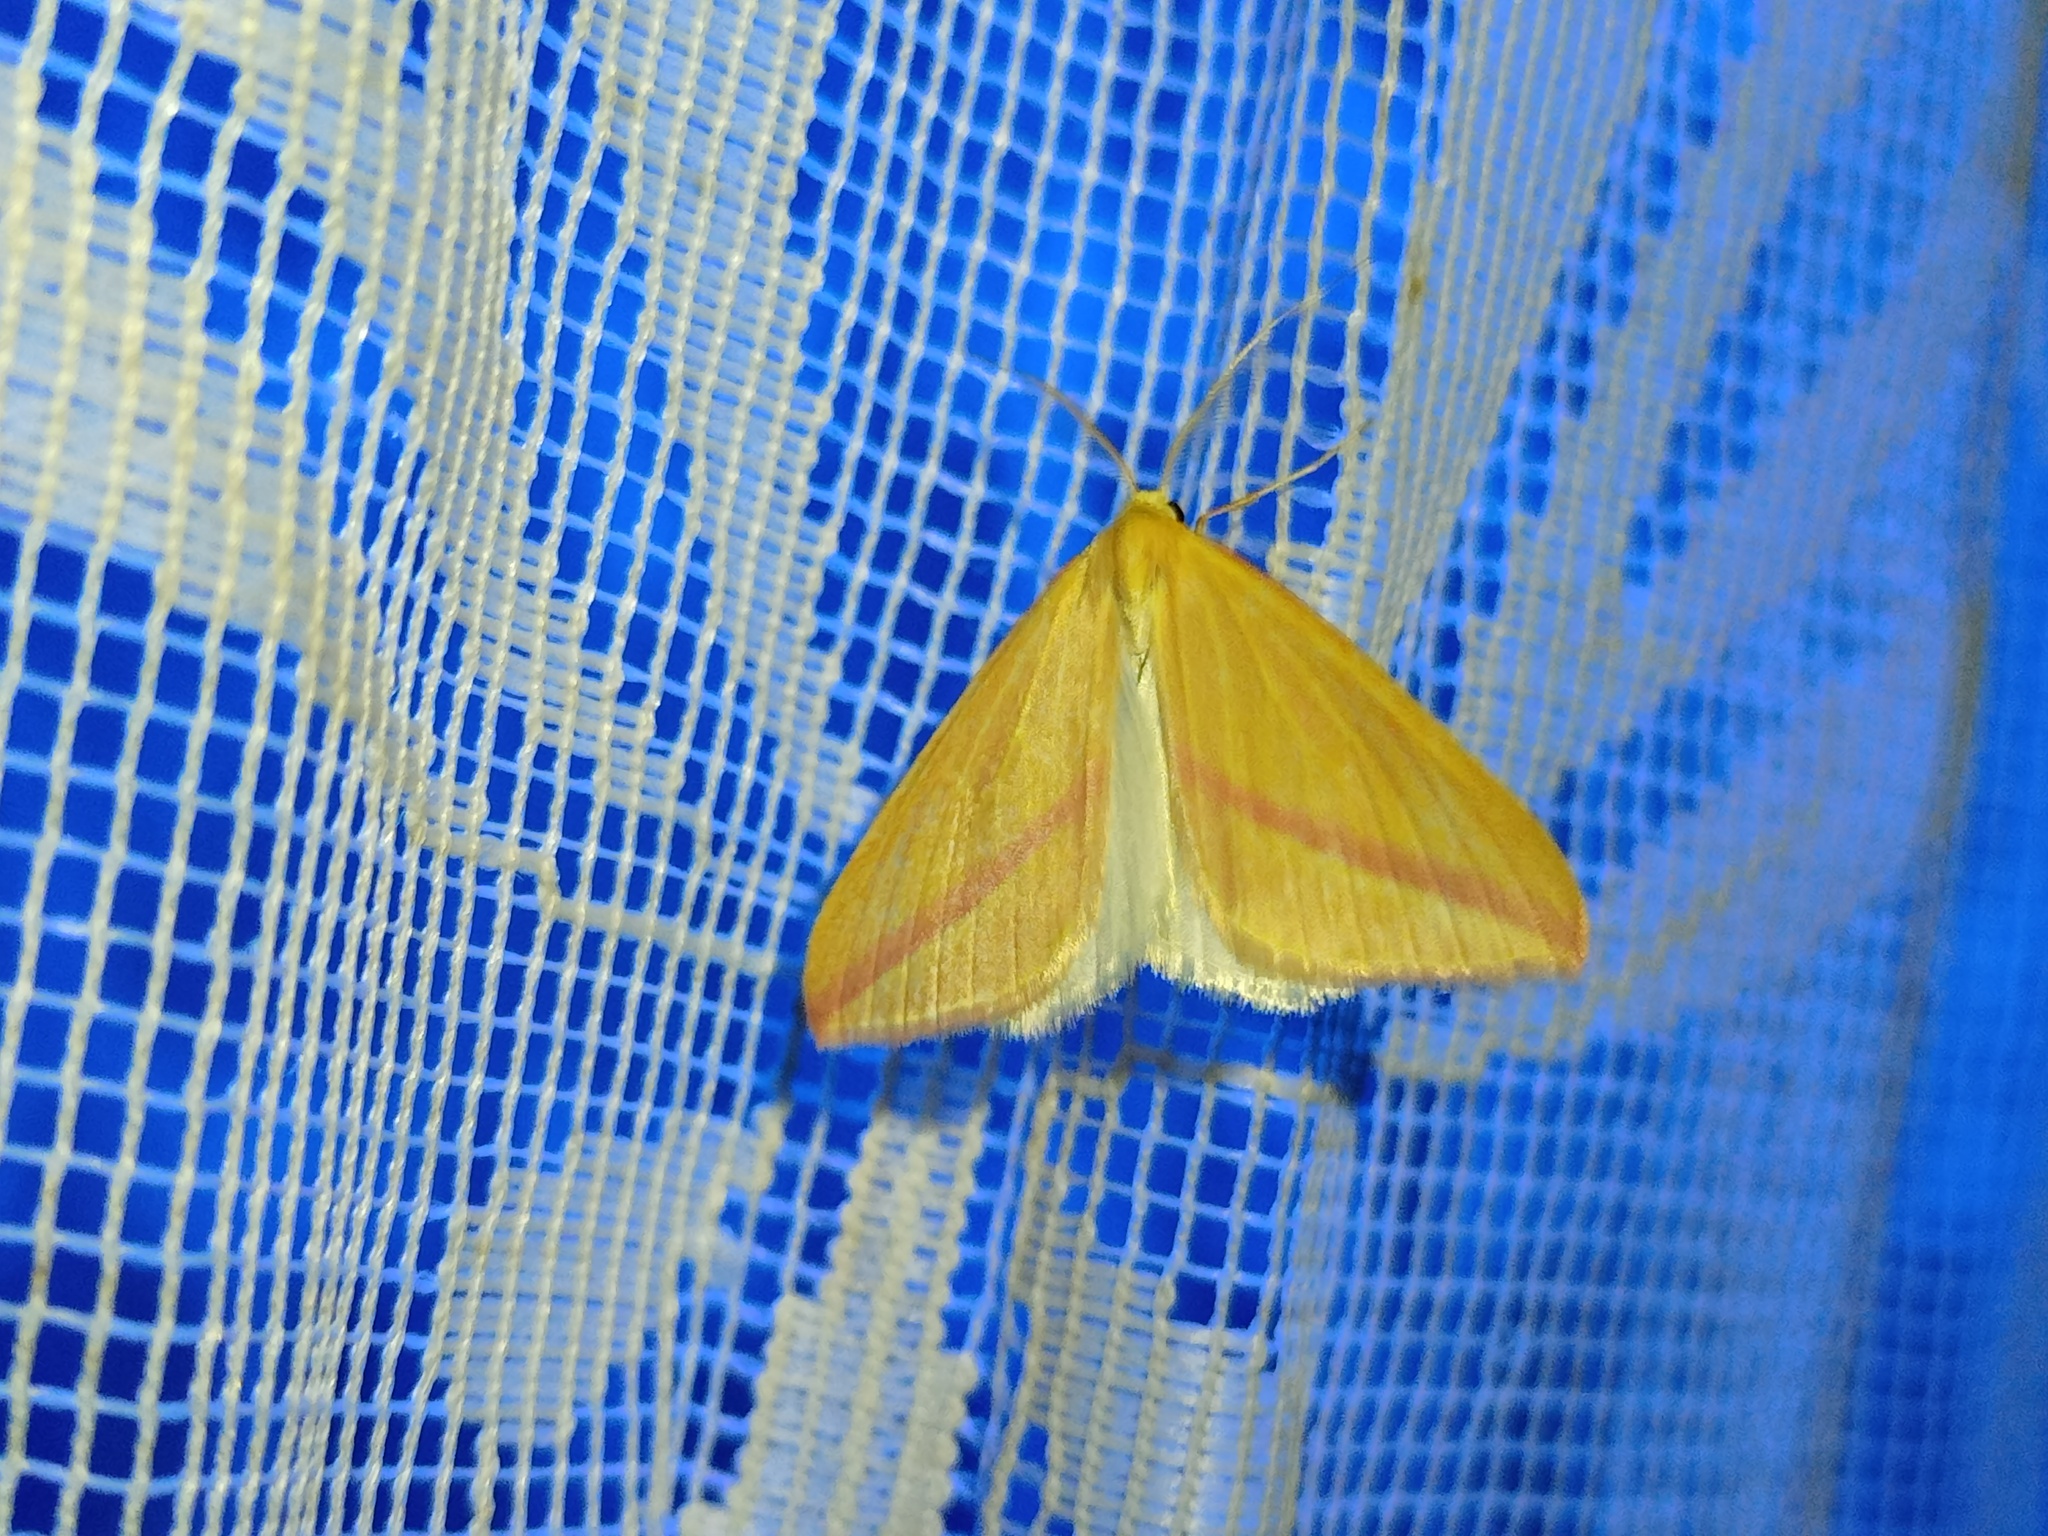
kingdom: Animalia
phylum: Arthropoda
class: Insecta
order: Lepidoptera
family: Geometridae
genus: Rhodometra
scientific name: Rhodometra sacraria
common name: Vestal
